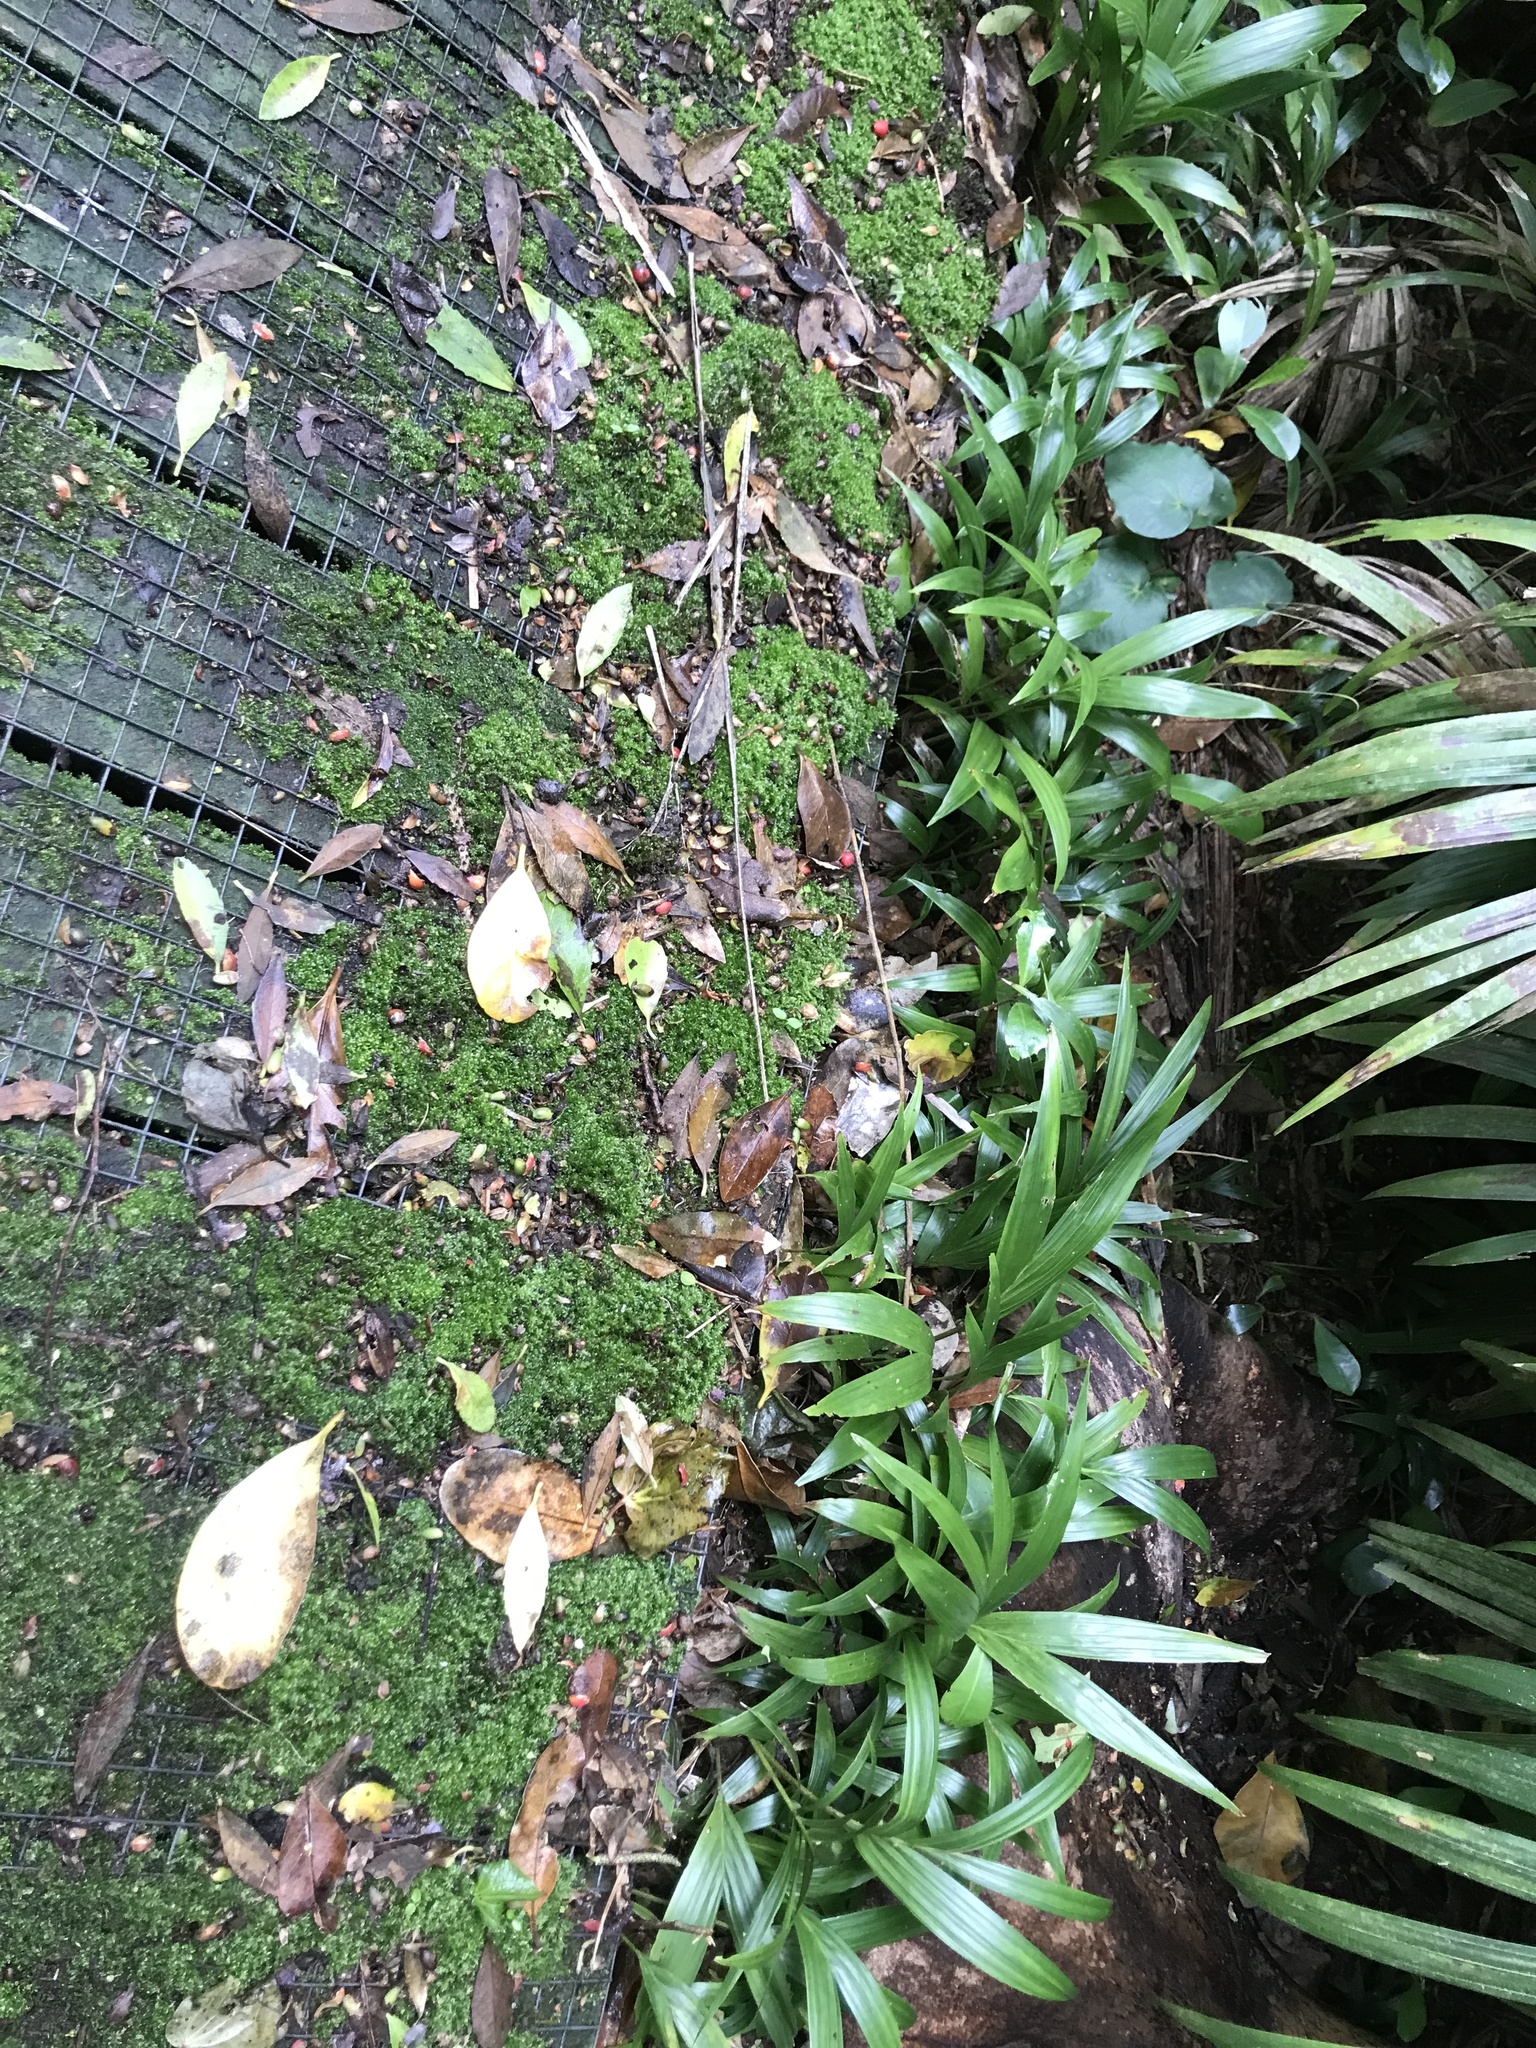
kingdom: Plantae
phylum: Tracheophyta
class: Liliopsida
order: Arecales
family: Arecaceae
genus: Rhopalostylis
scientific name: Rhopalostylis sapida
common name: Feather-duster palm
